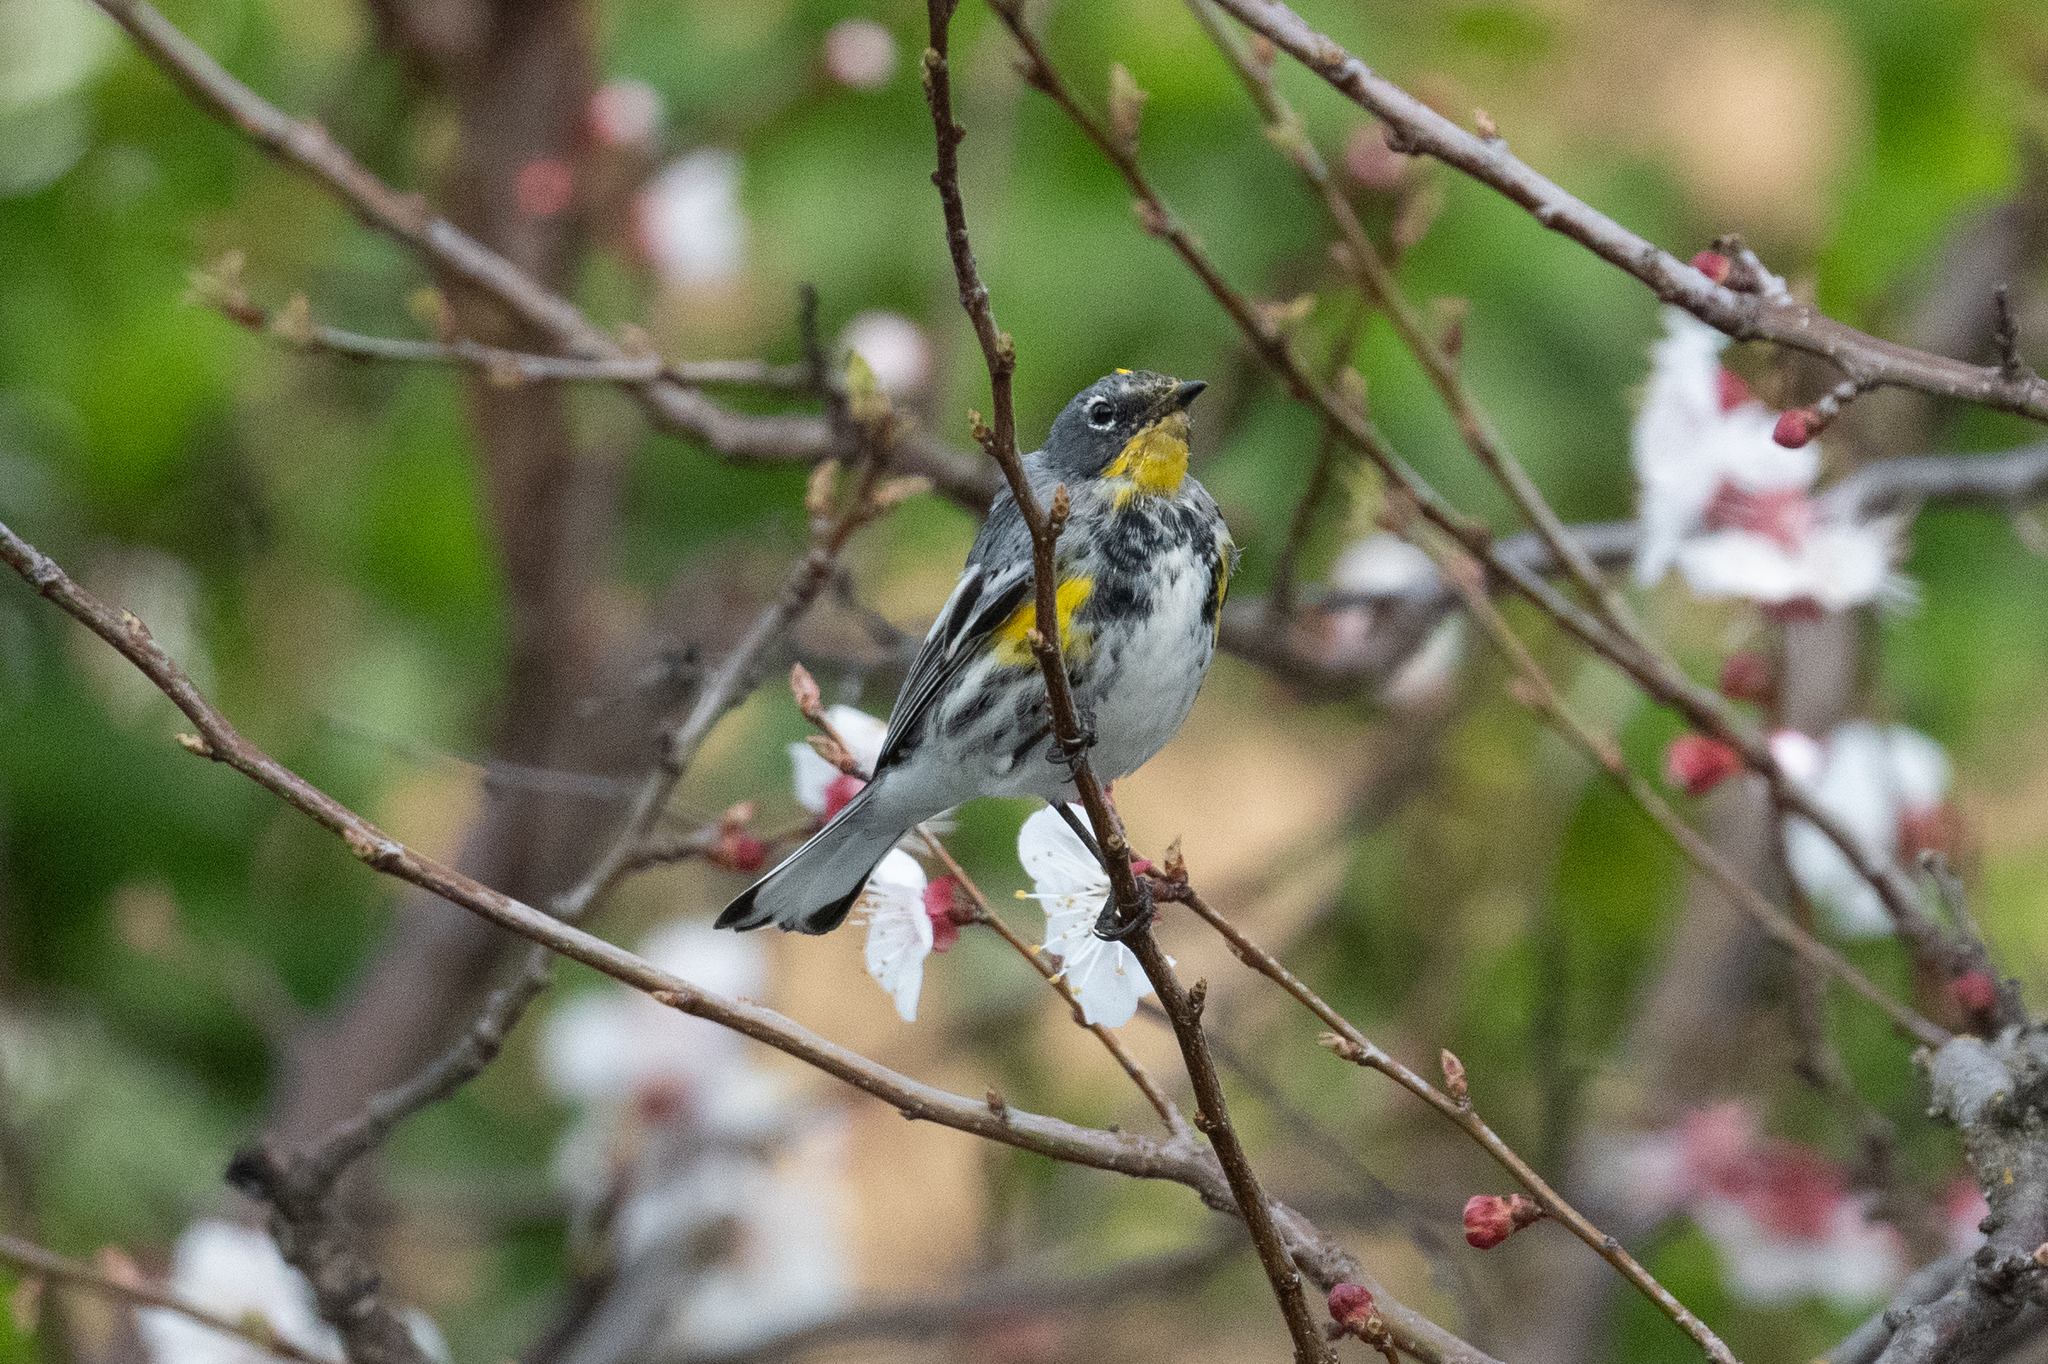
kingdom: Animalia
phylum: Chordata
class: Aves
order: Passeriformes
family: Parulidae
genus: Setophaga
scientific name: Setophaga coronata
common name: Myrtle warbler
